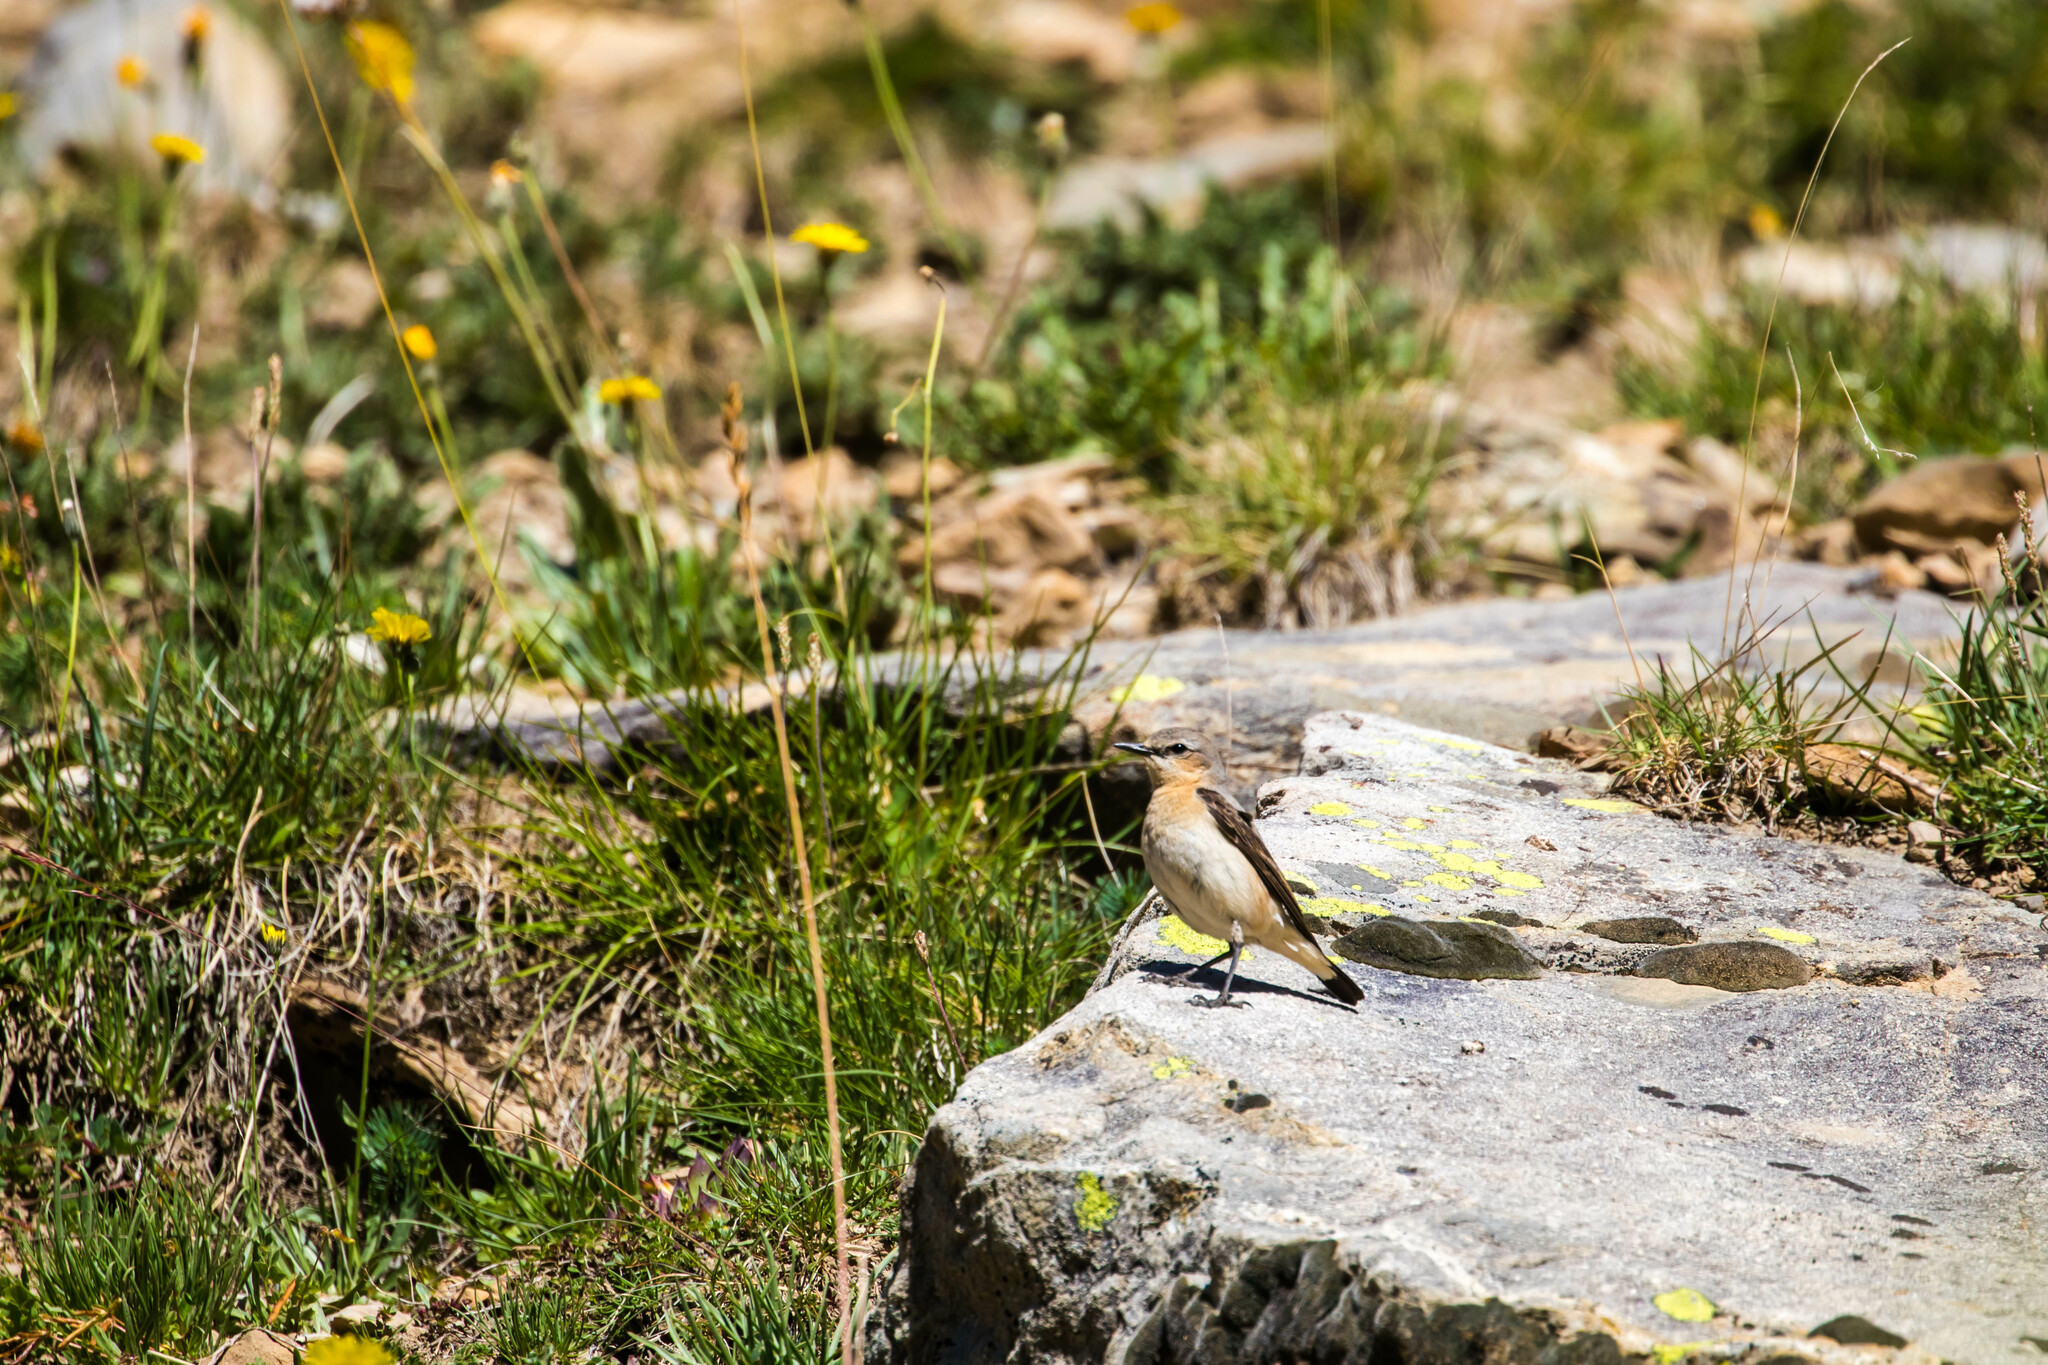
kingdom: Animalia
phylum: Chordata
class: Aves
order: Passeriformes
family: Muscicapidae
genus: Oenanthe
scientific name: Oenanthe oenanthe
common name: Northern wheatear
